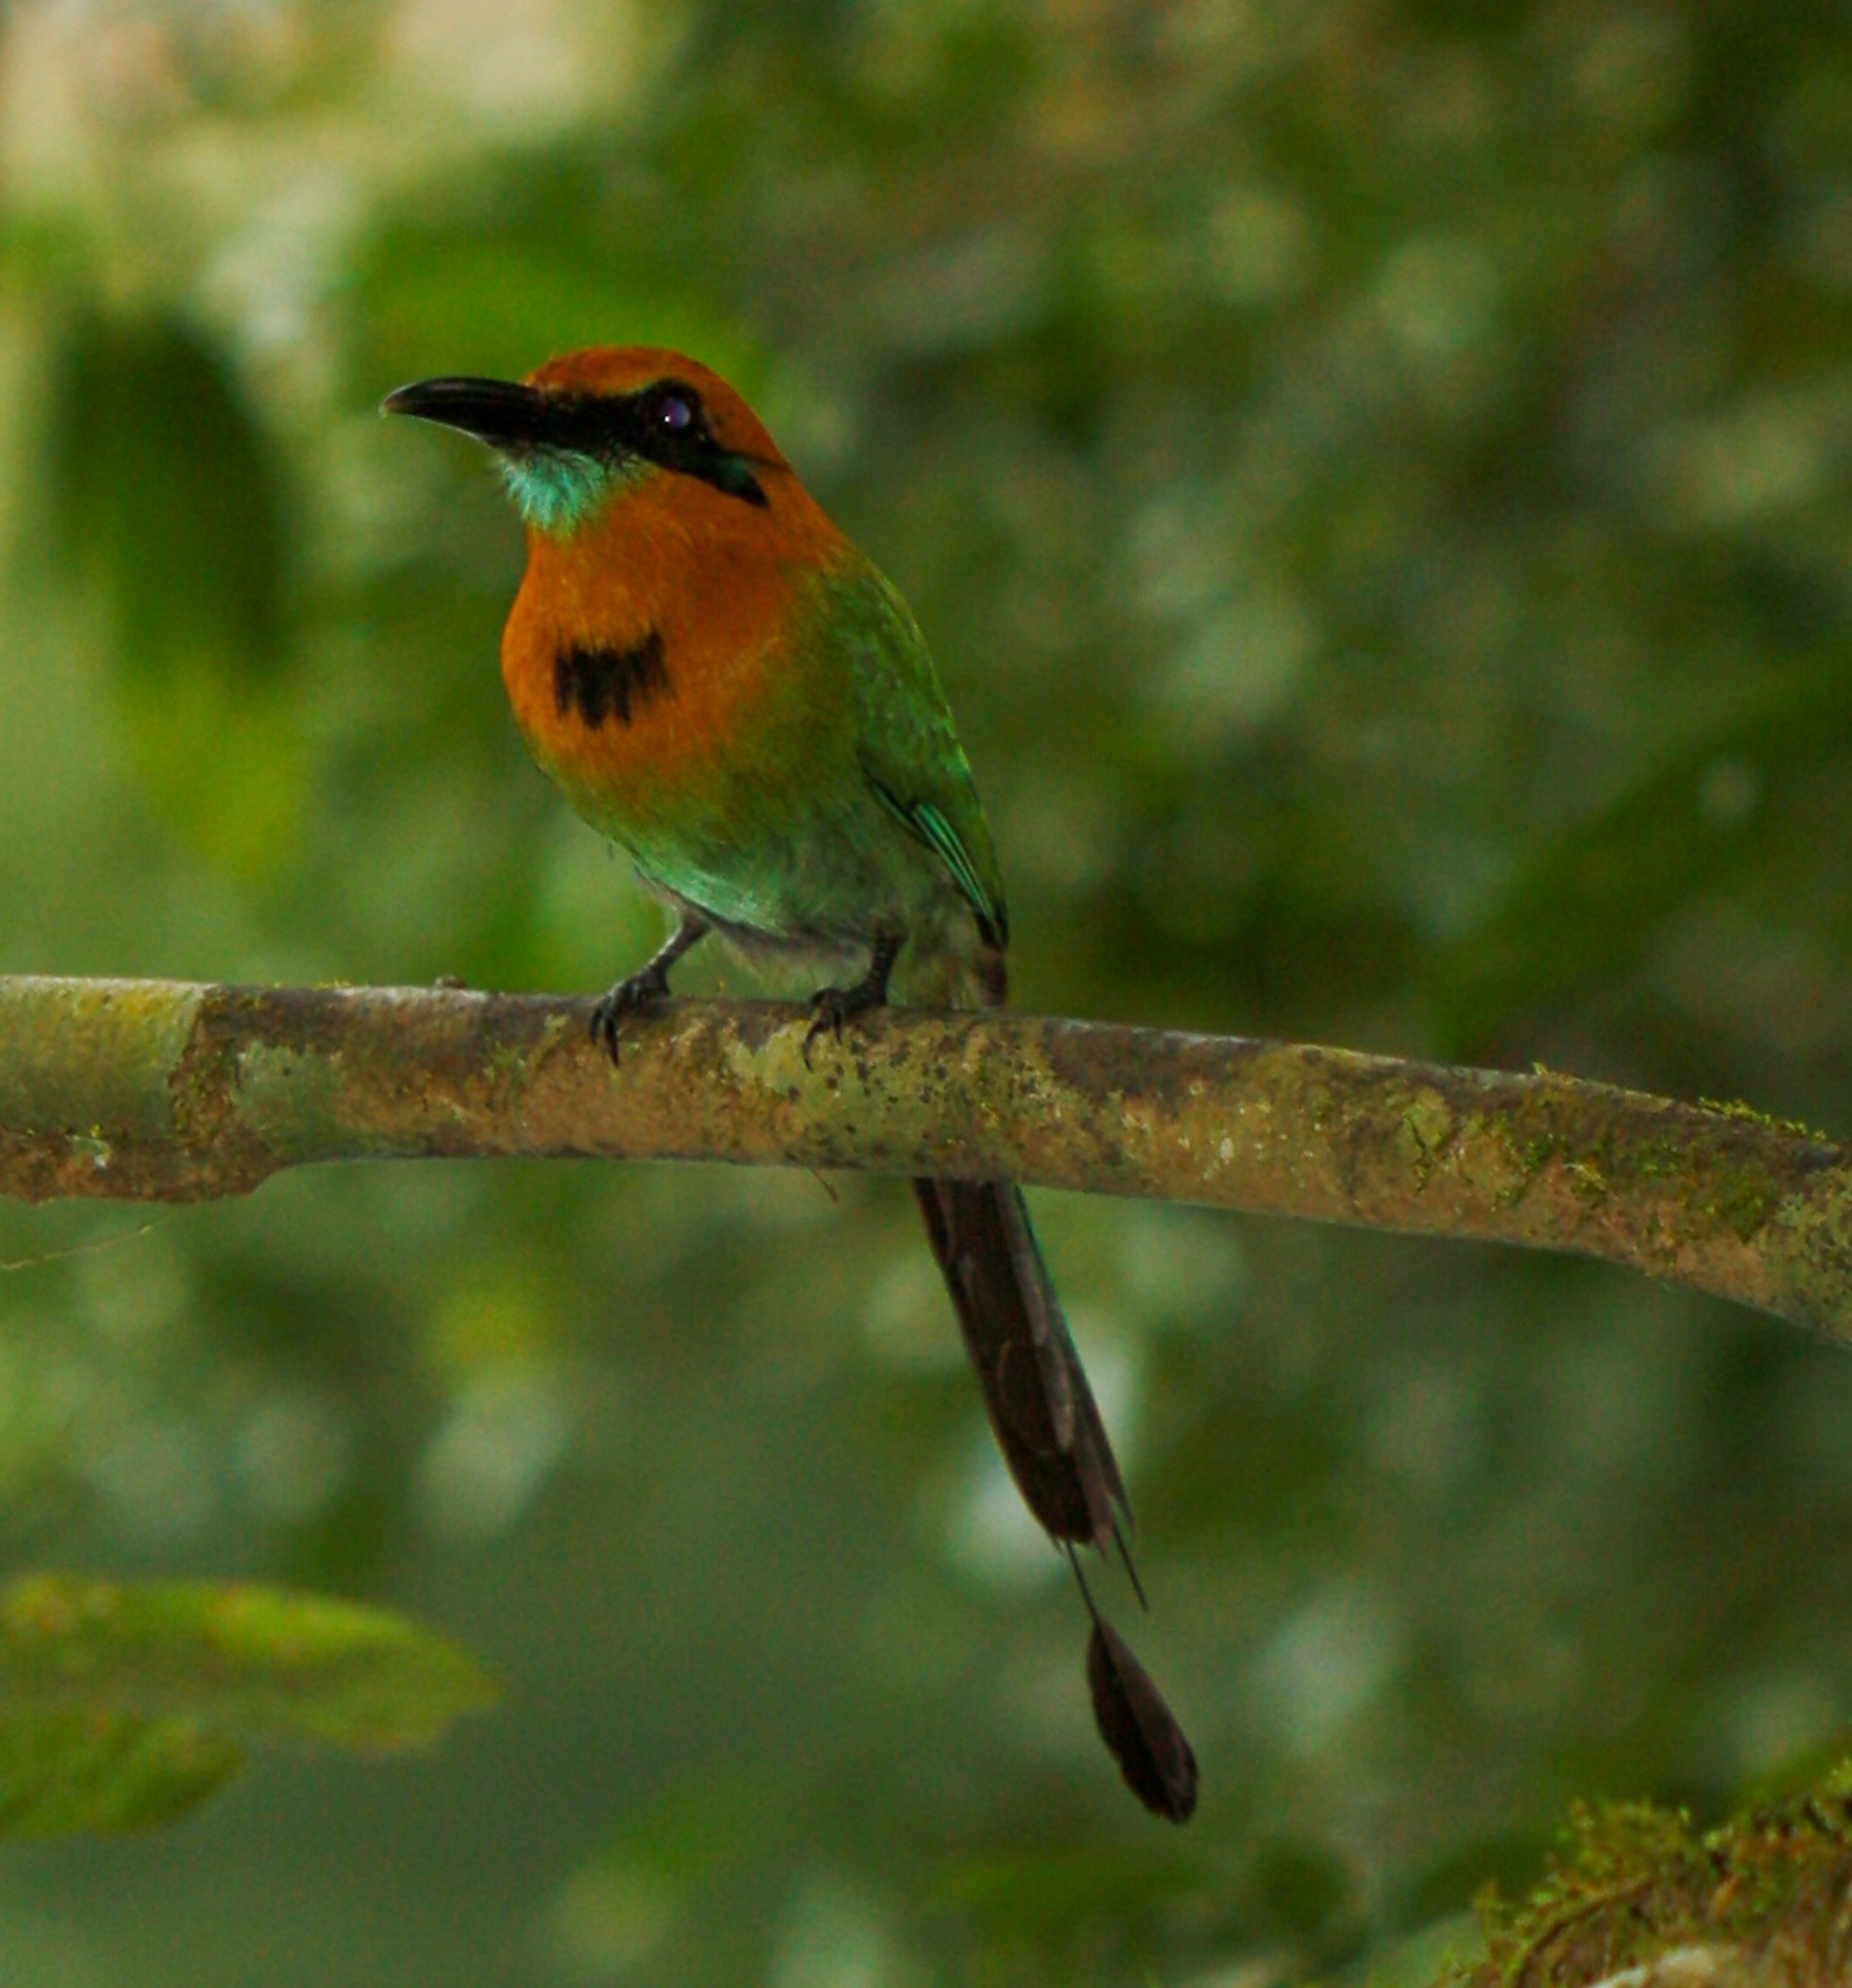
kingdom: Animalia
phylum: Chordata
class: Aves
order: Coraciiformes
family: Momotidae
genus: Electron
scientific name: Electron platyrhynchum
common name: Broad-billed motmot
